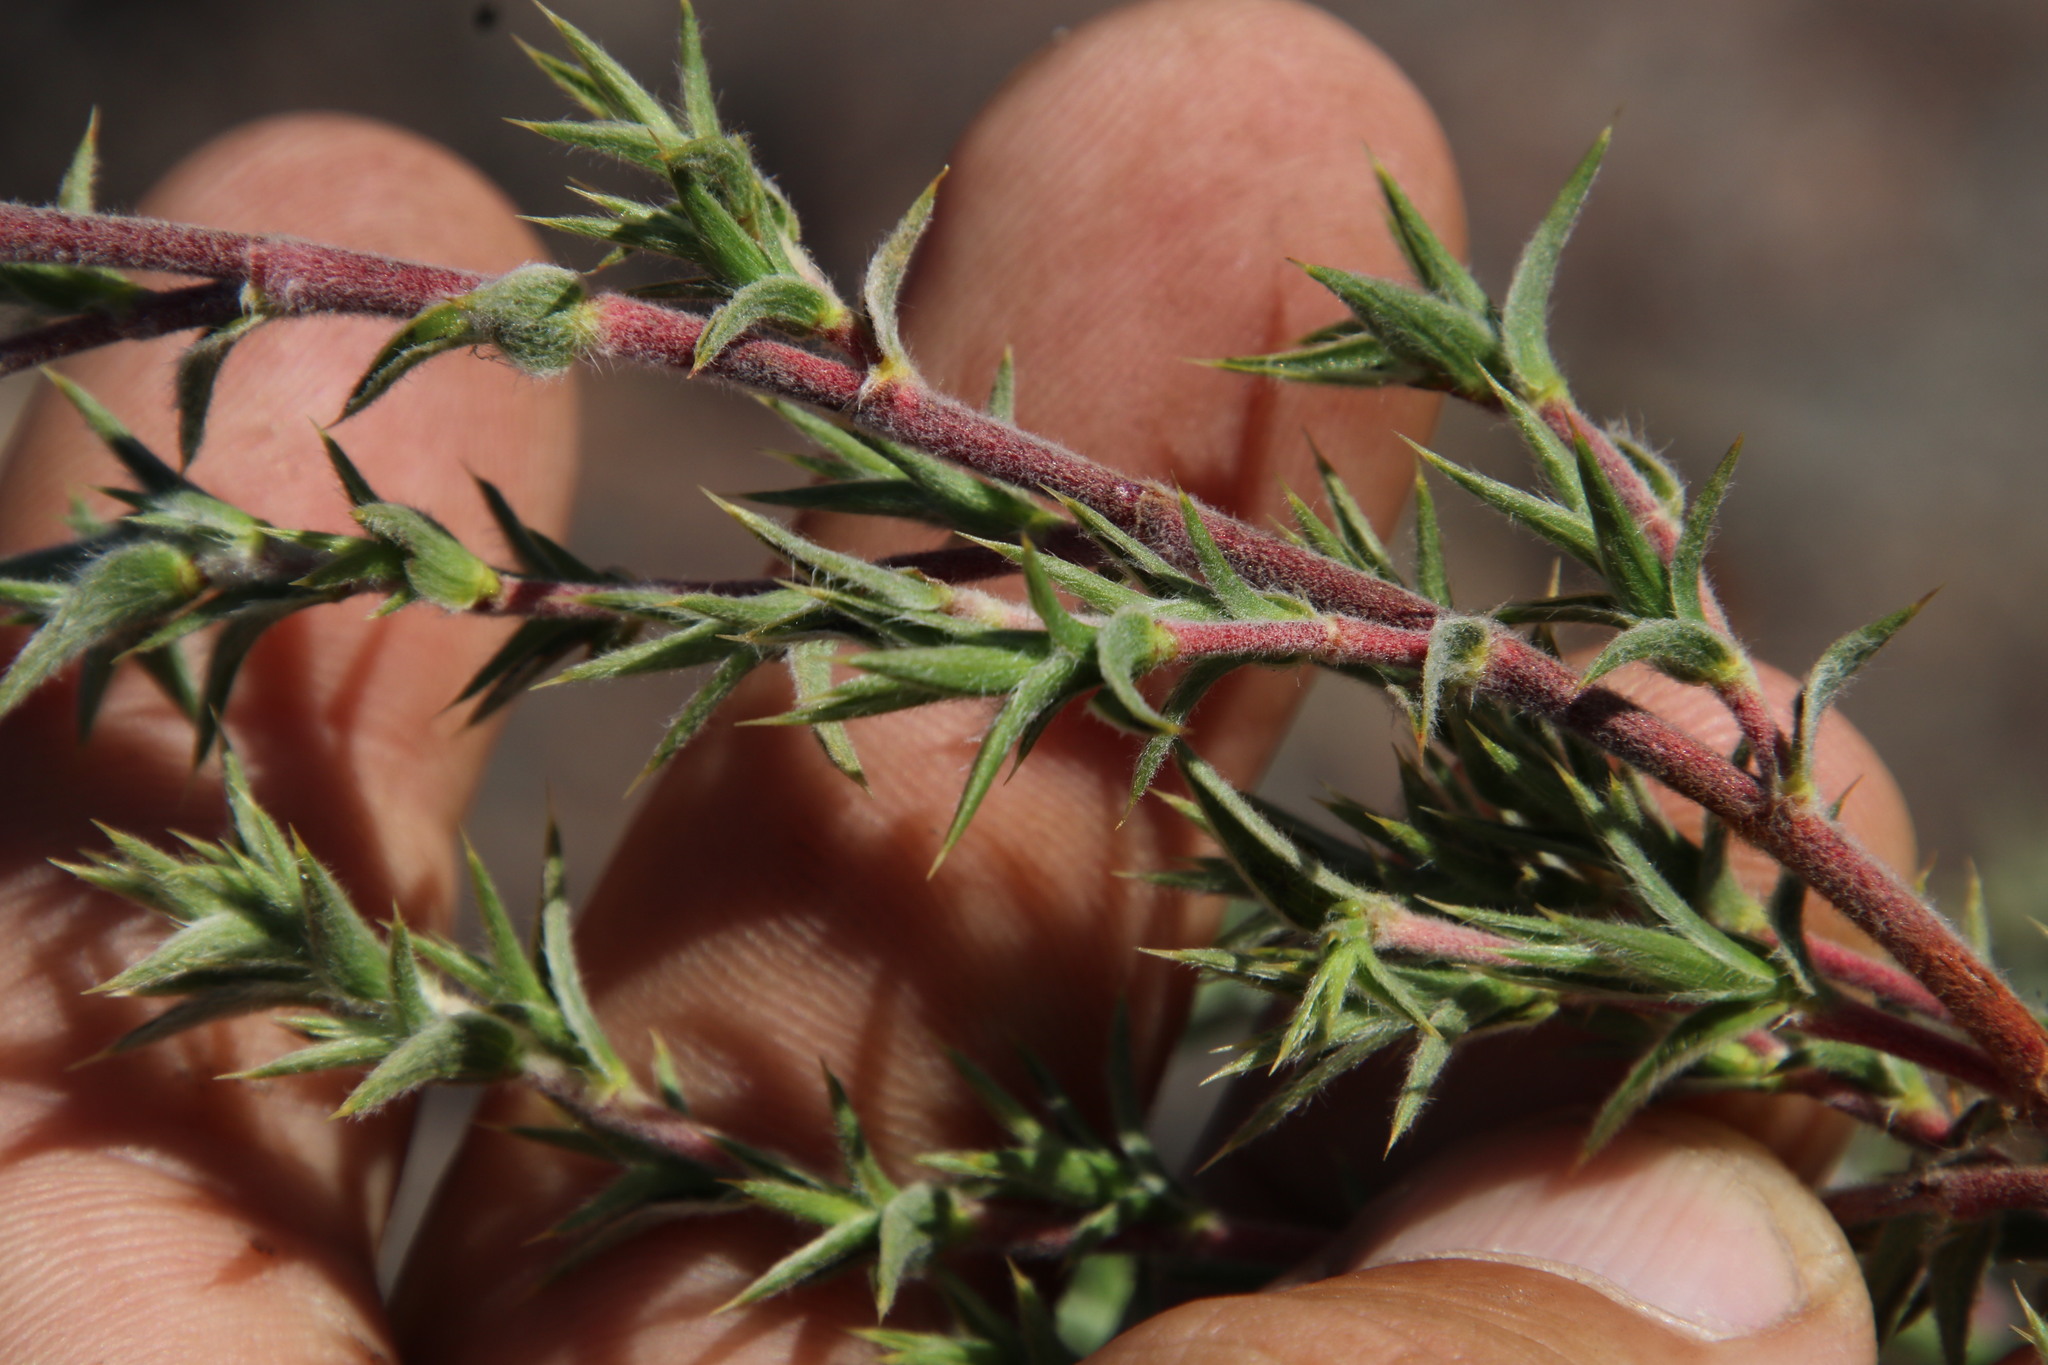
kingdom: Plantae
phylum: Tracheophyta
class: Magnoliopsida
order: Rosales
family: Rosaceae
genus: Cliffortia
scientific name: Cliffortia ruscifolia
